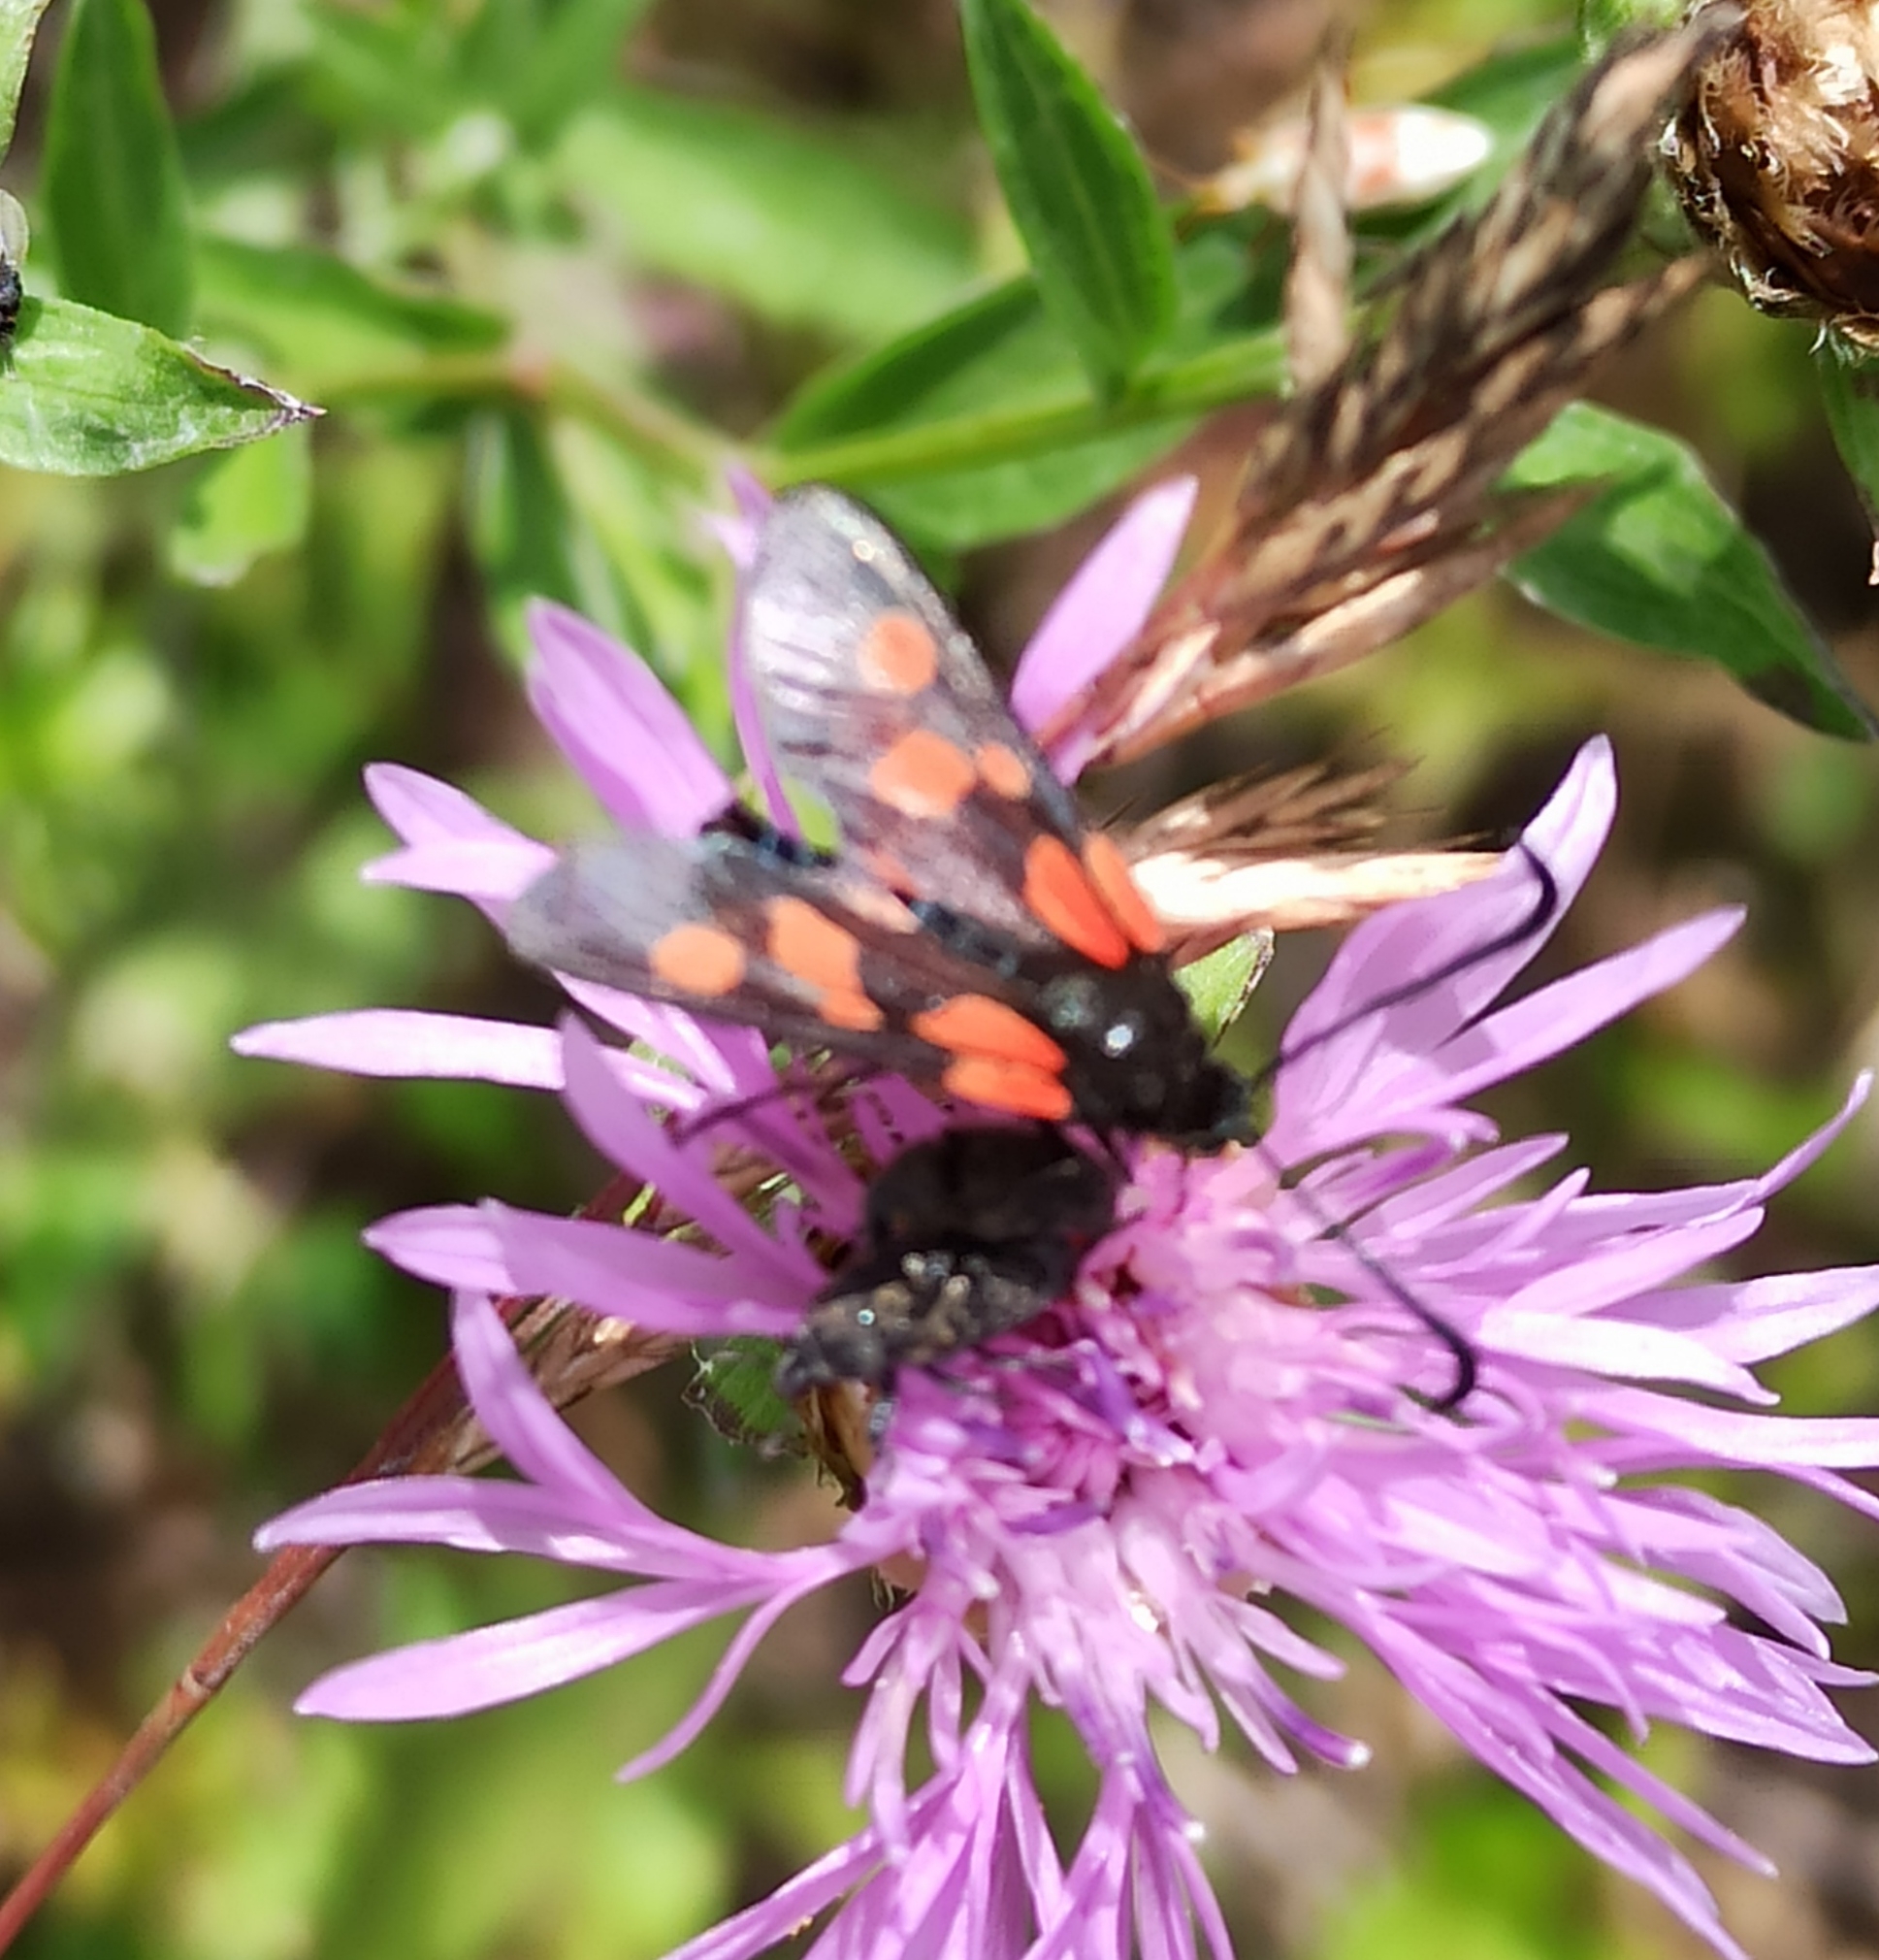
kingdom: Animalia
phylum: Arthropoda
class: Insecta
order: Lepidoptera
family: Zygaenidae
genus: Zygaena
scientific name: Zygaena viciae
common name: New forest burnet
